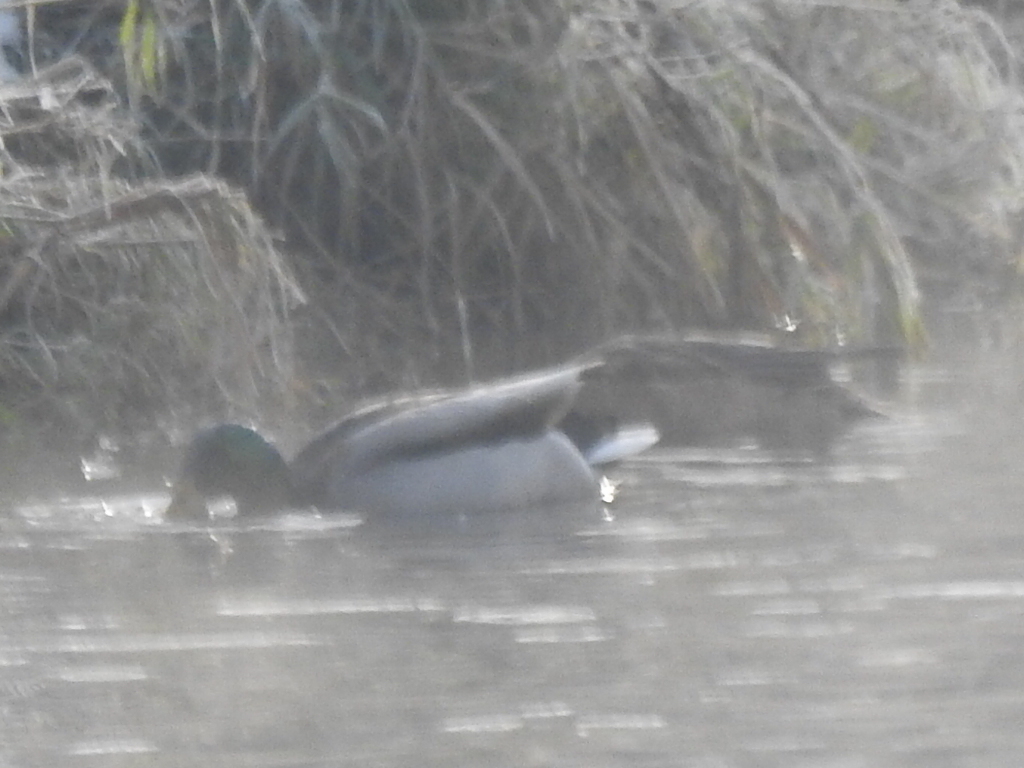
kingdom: Animalia
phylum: Chordata
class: Aves
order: Anseriformes
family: Anatidae
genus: Anas
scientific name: Anas platyrhynchos
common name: Mallard
